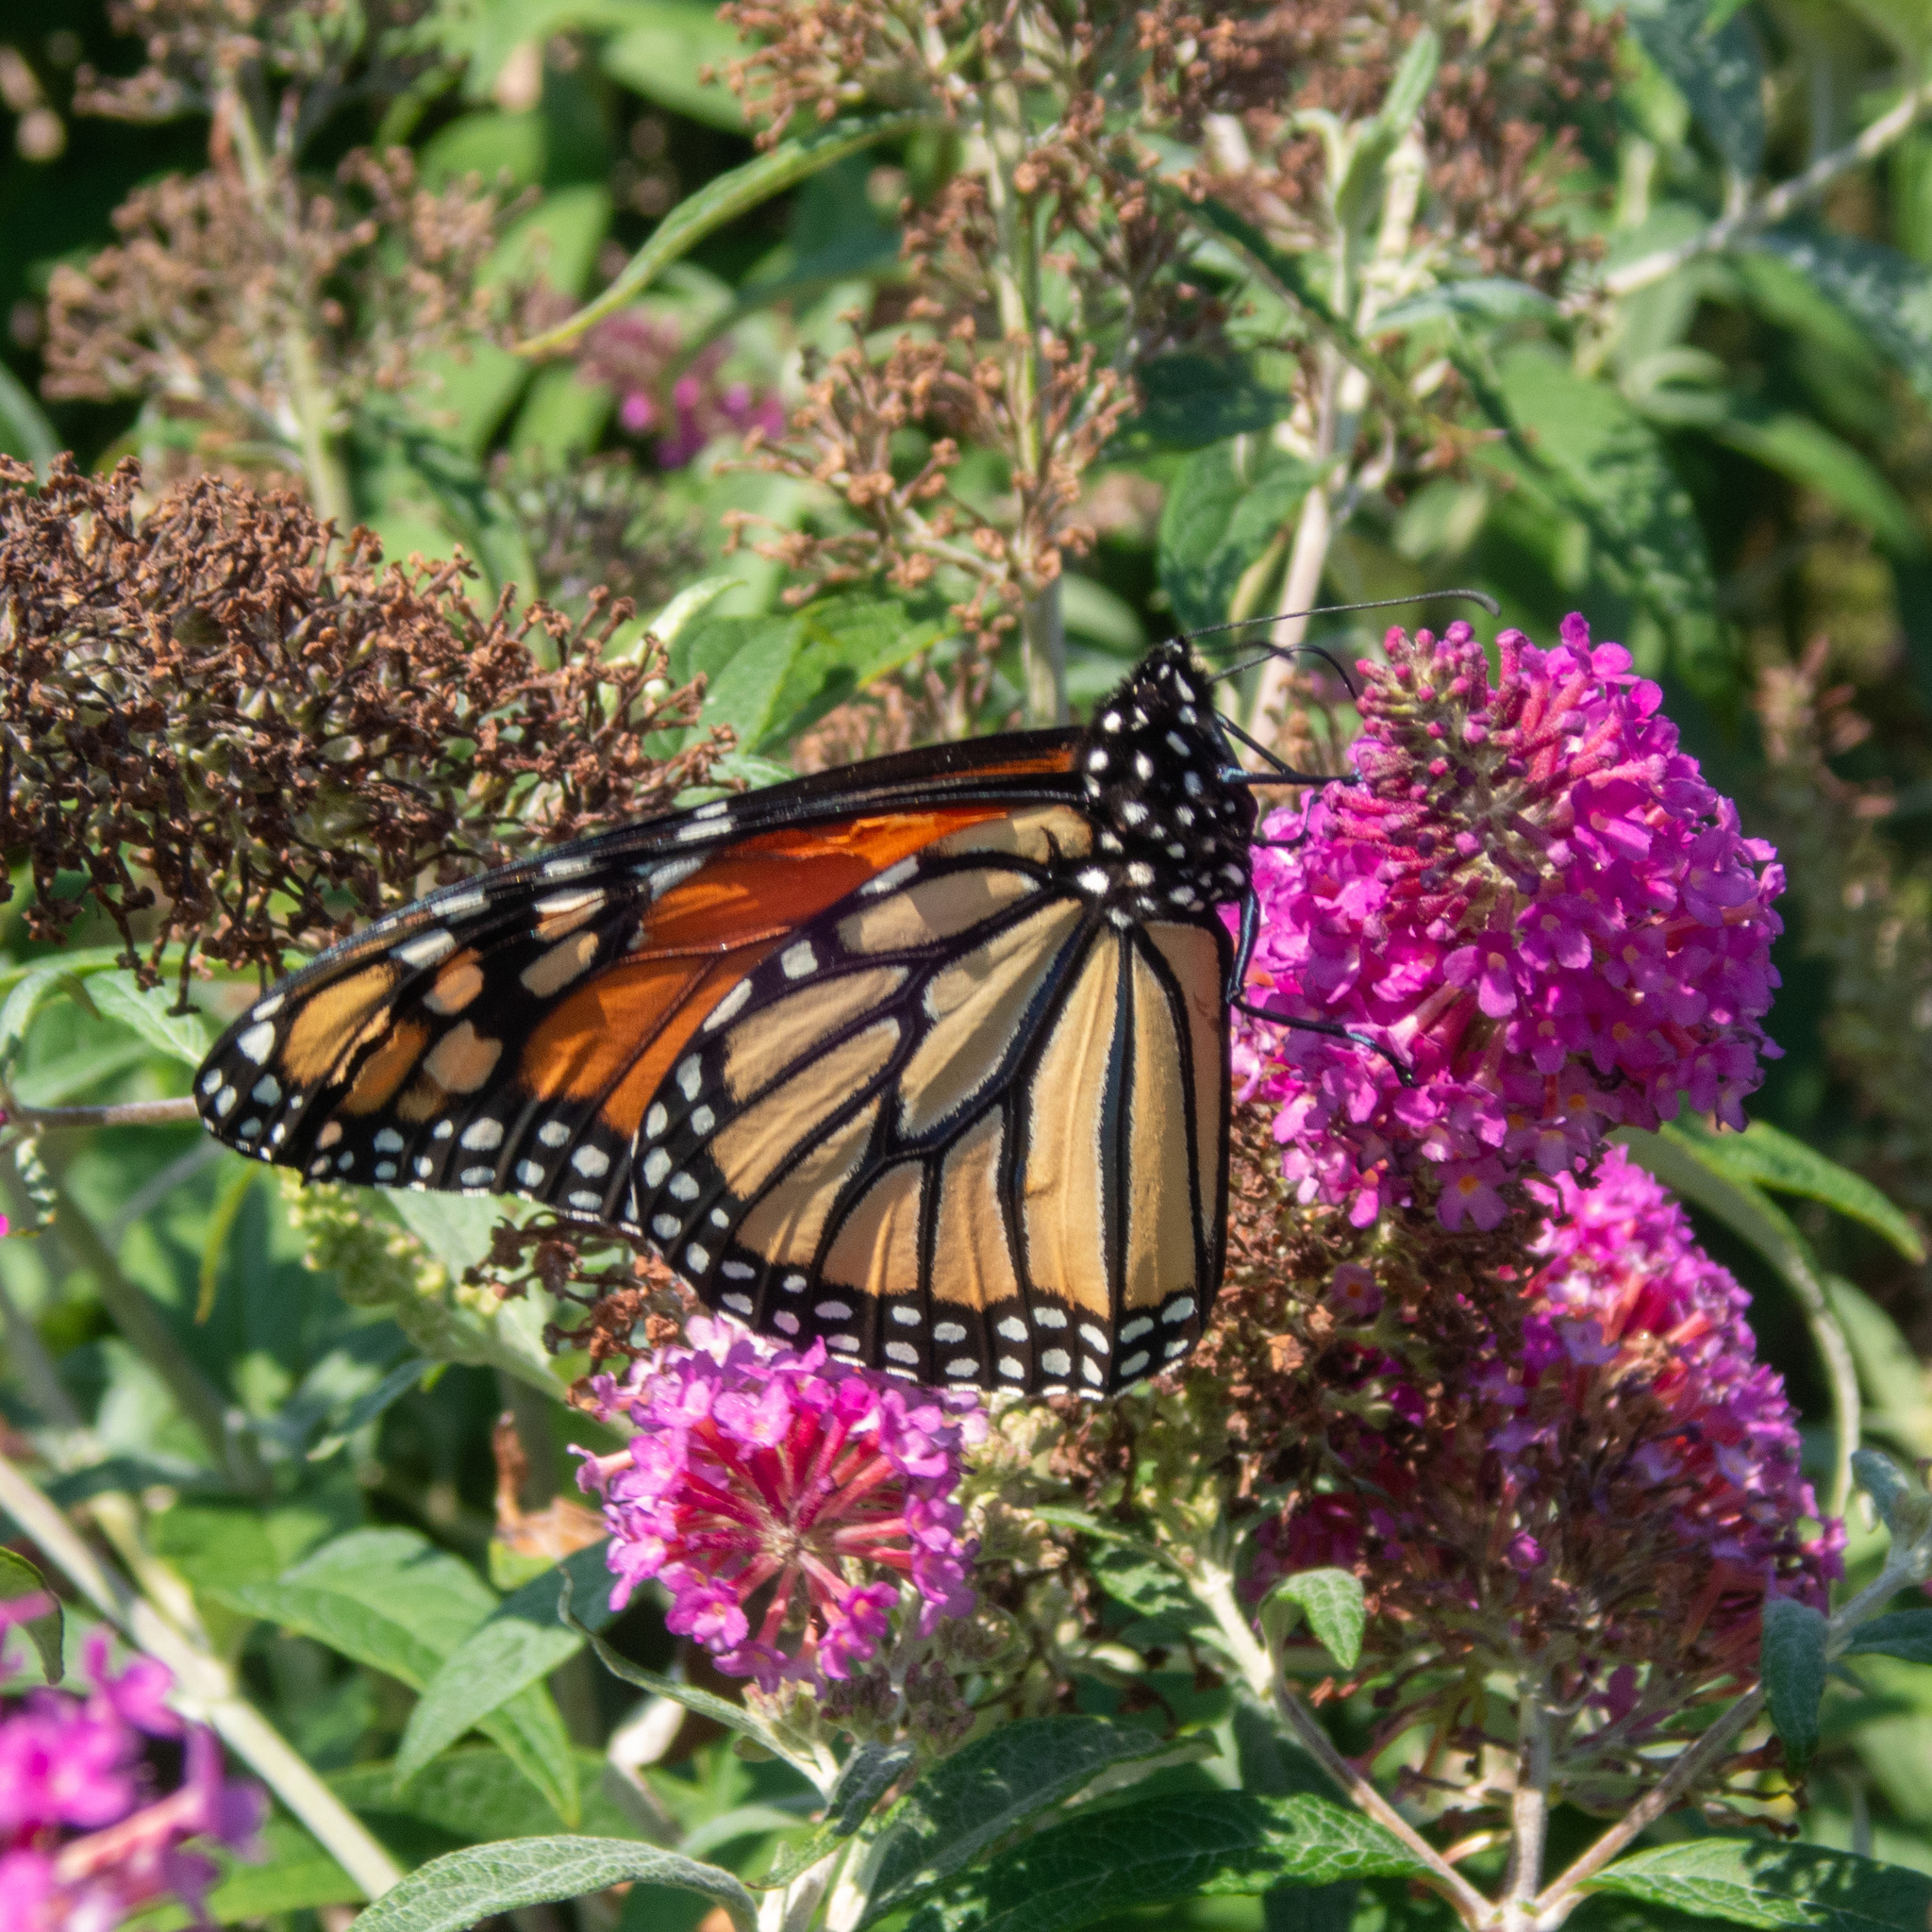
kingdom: Animalia
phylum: Arthropoda
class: Insecta
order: Lepidoptera
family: Nymphalidae
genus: Danaus
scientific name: Danaus plexippus
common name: Monarch
